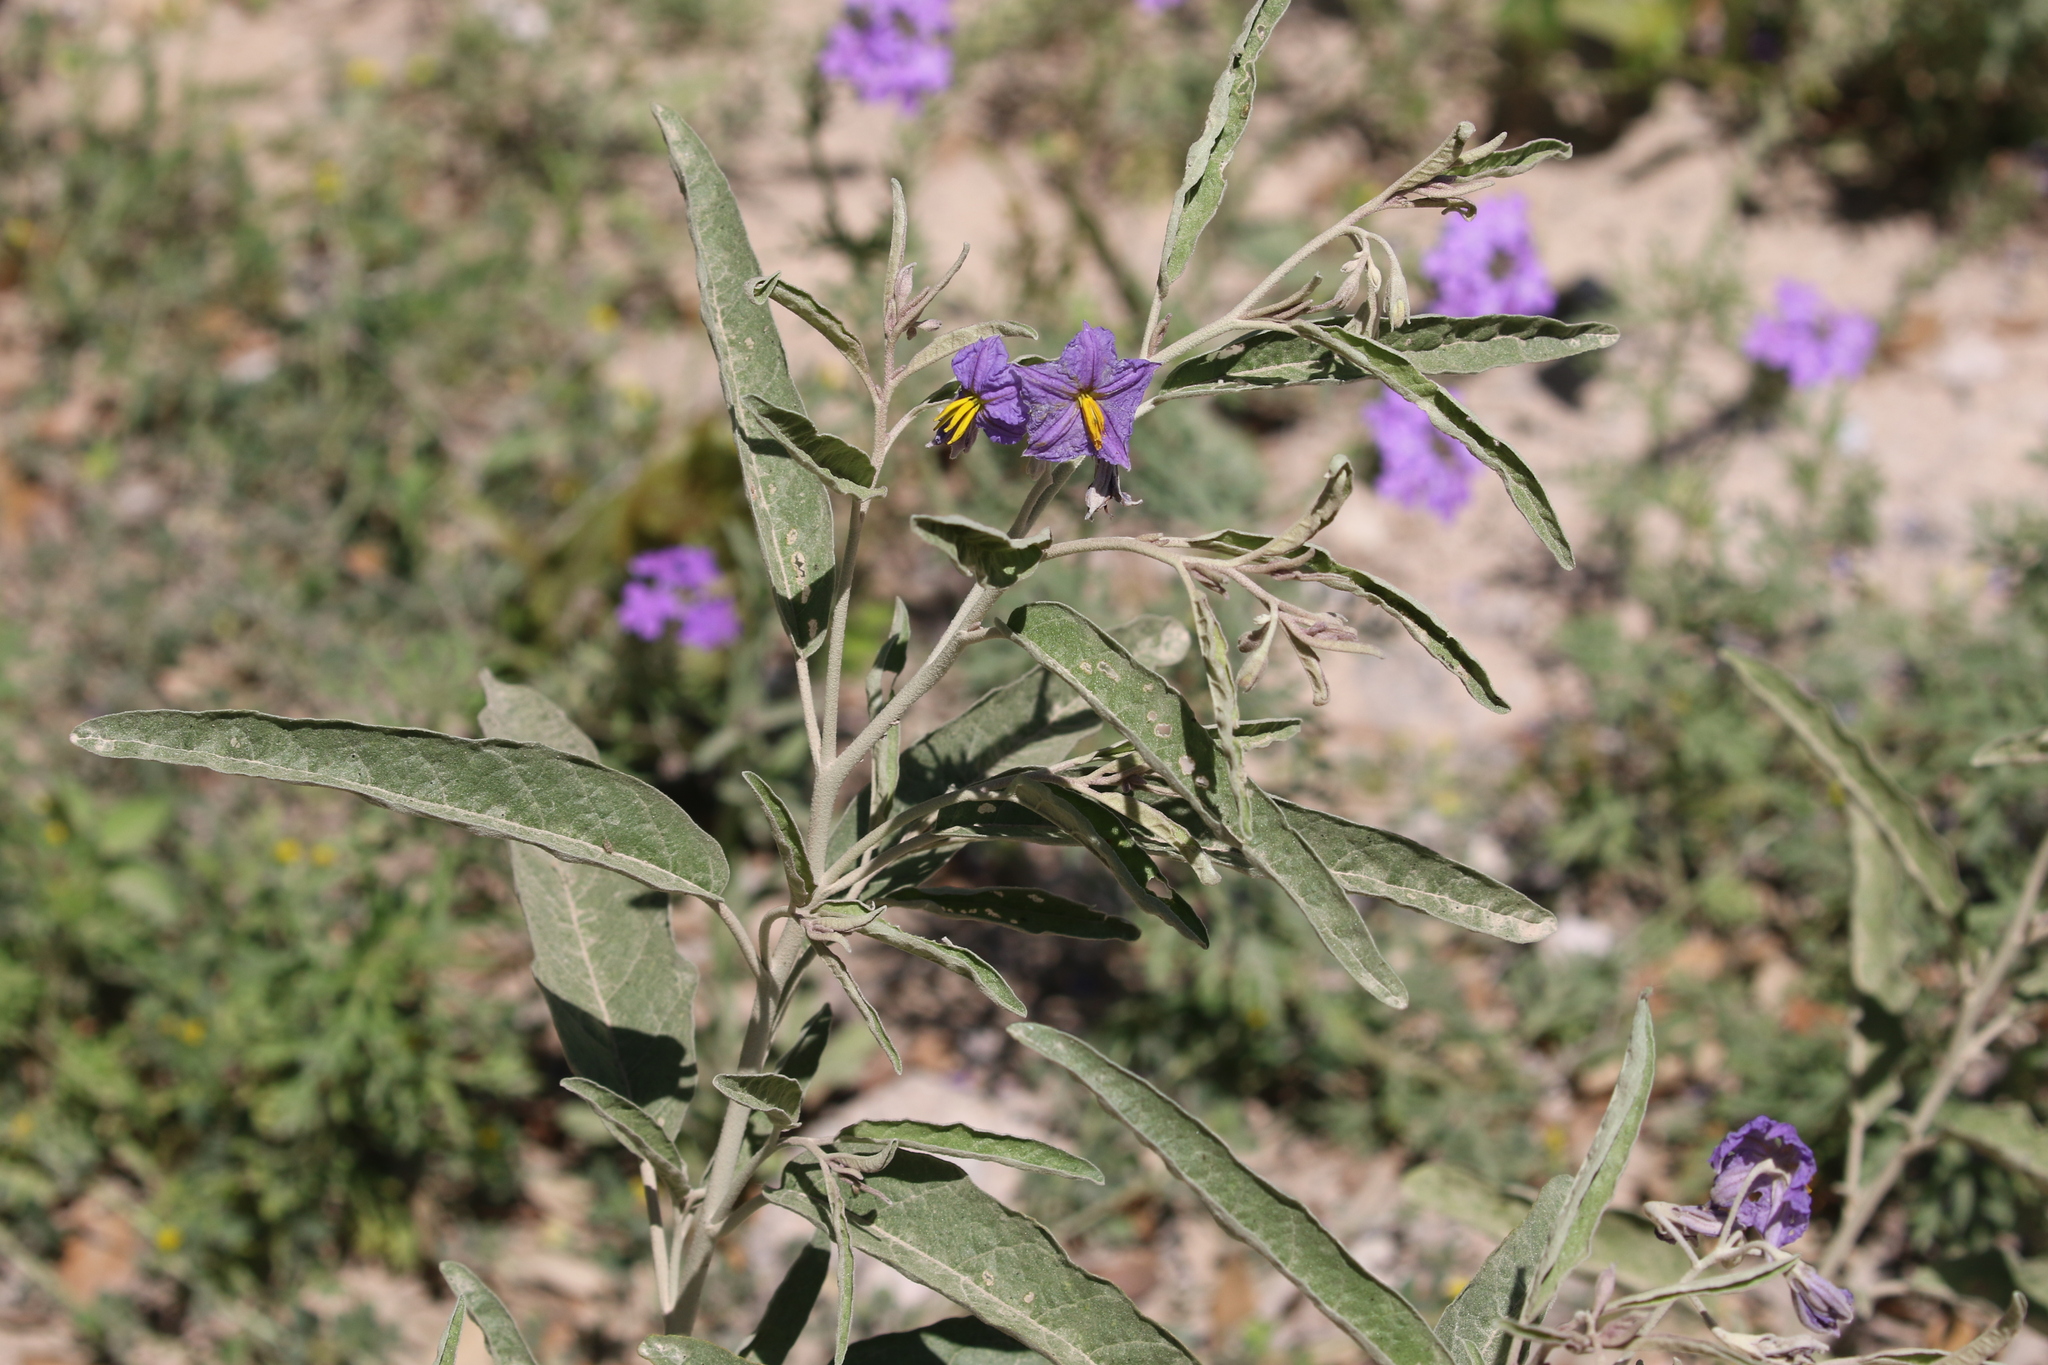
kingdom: Plantae
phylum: Tracheophyta
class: Magnoliopsida
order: Solanales
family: Solanaceae
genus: Solanum
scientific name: Solanum elaeagnifolium
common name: Silverleaf nightshade
